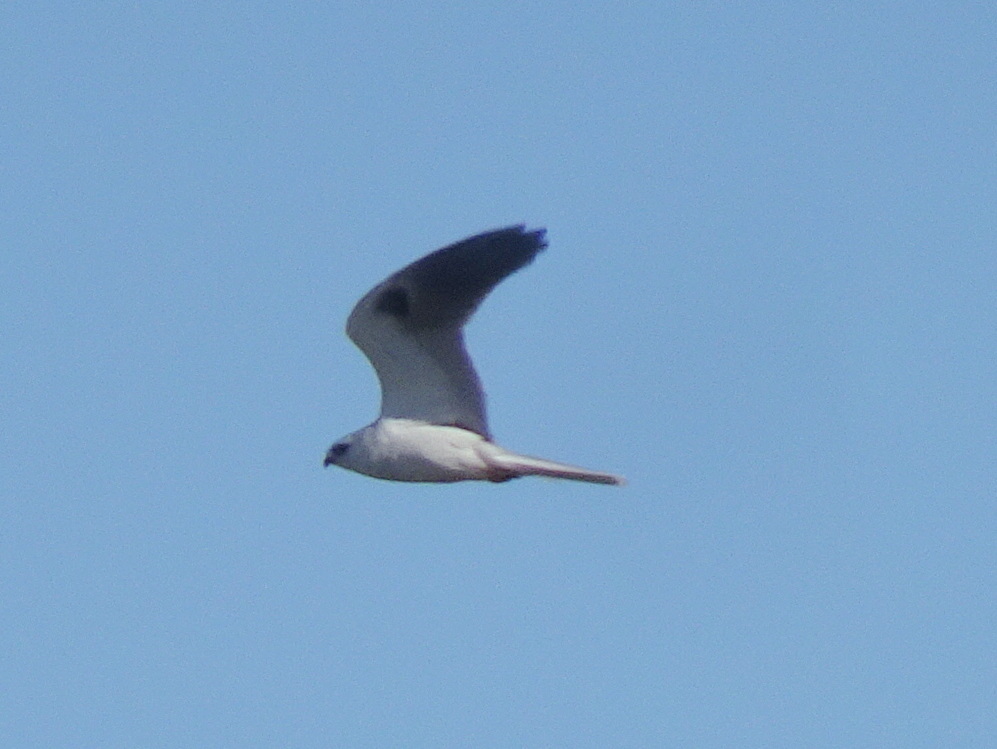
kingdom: Animalia
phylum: Chordata
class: Aves
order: Accipitriformes
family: Accipitridae
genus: Elanus
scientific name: Elanus leucurus
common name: White-tailed kite
